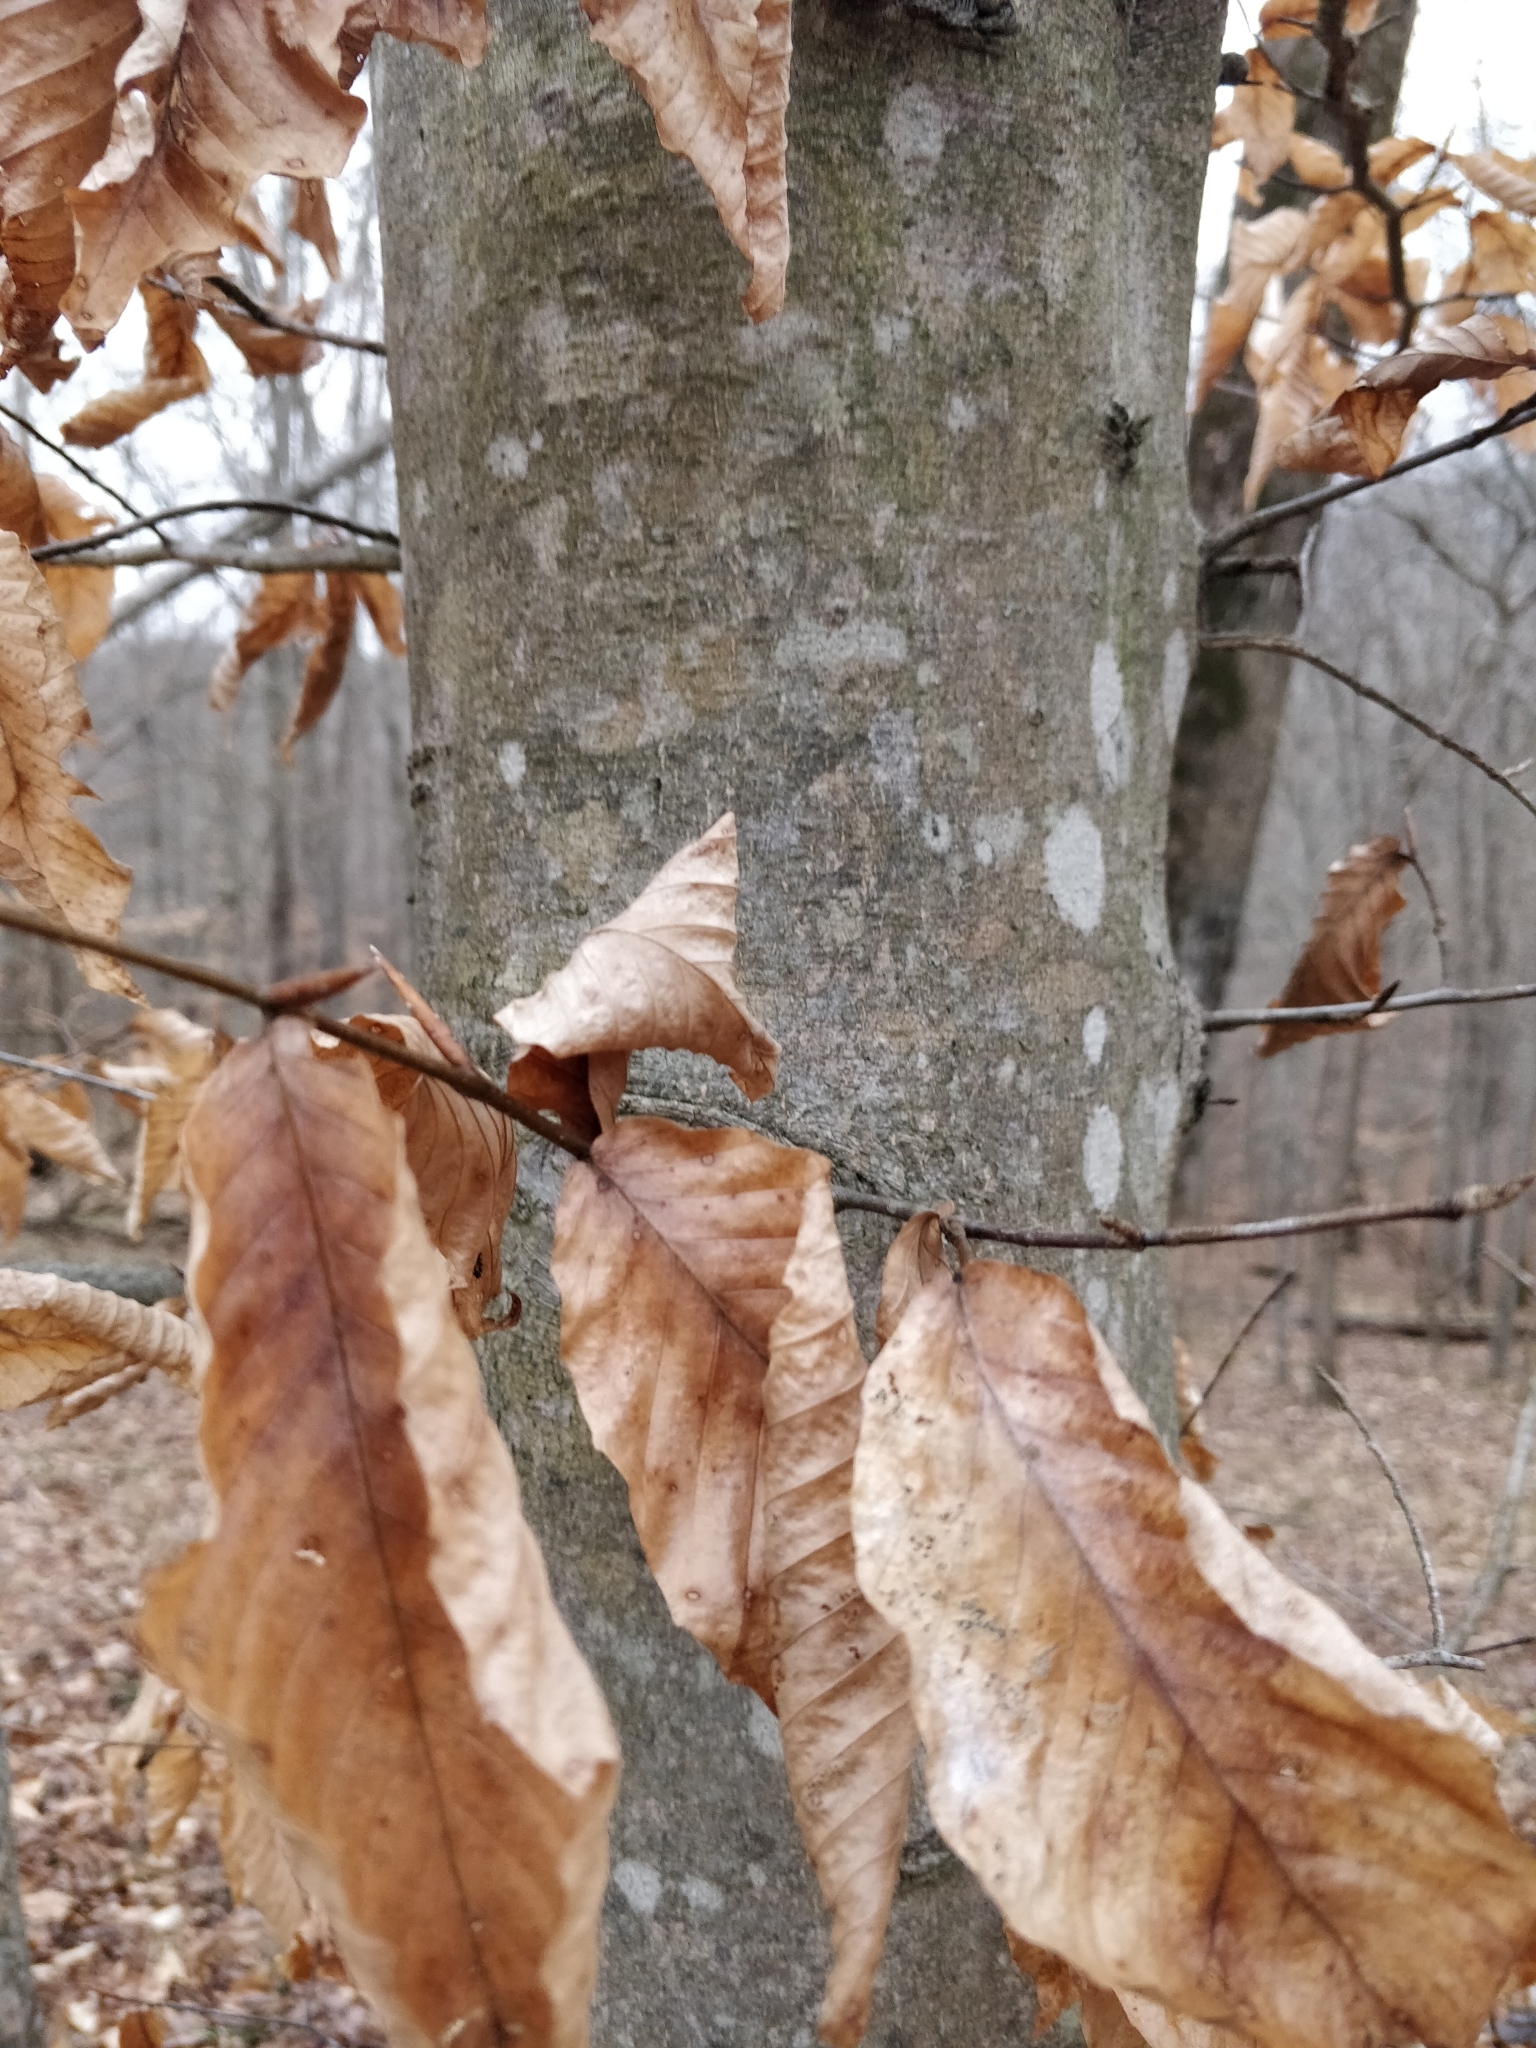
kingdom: Plantae
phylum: Tracheophyta
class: Magnoliopsida
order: Fagales
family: Fagaceae
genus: Fagus
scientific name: Fagus grandifolia
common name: American beech
